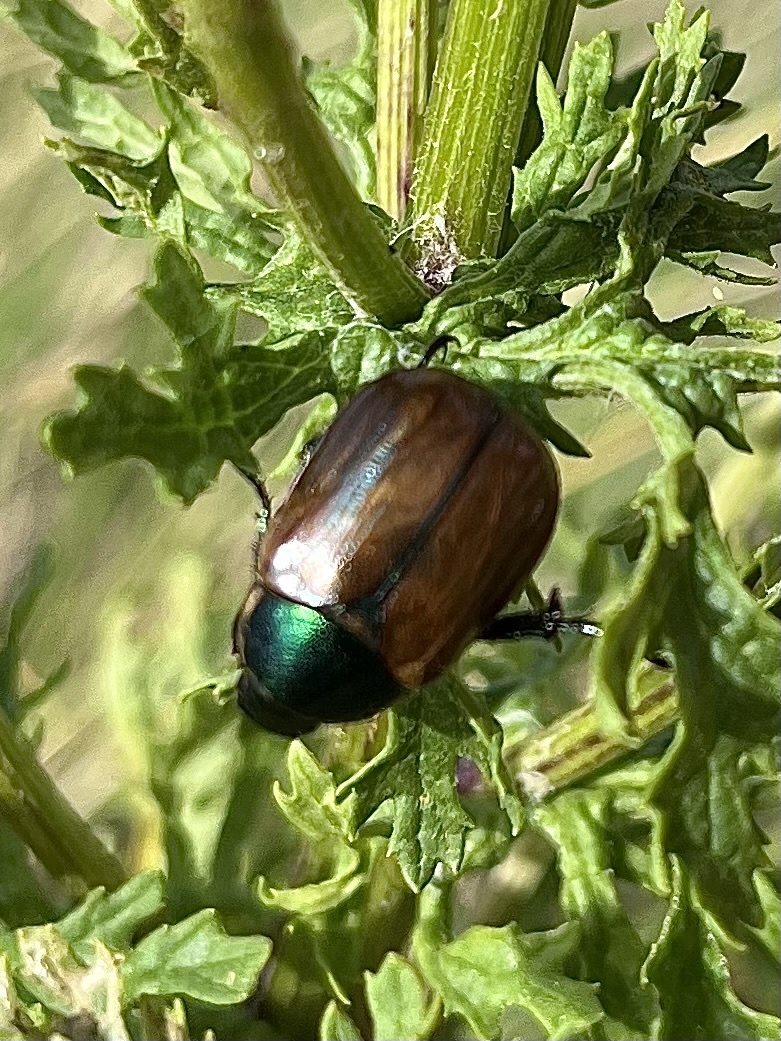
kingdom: Animalia
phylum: Arthropoda
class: Insecta
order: Coleoptera
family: Scarabaeidae
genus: Anomala
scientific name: Anomala dubia
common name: Dune chafer
